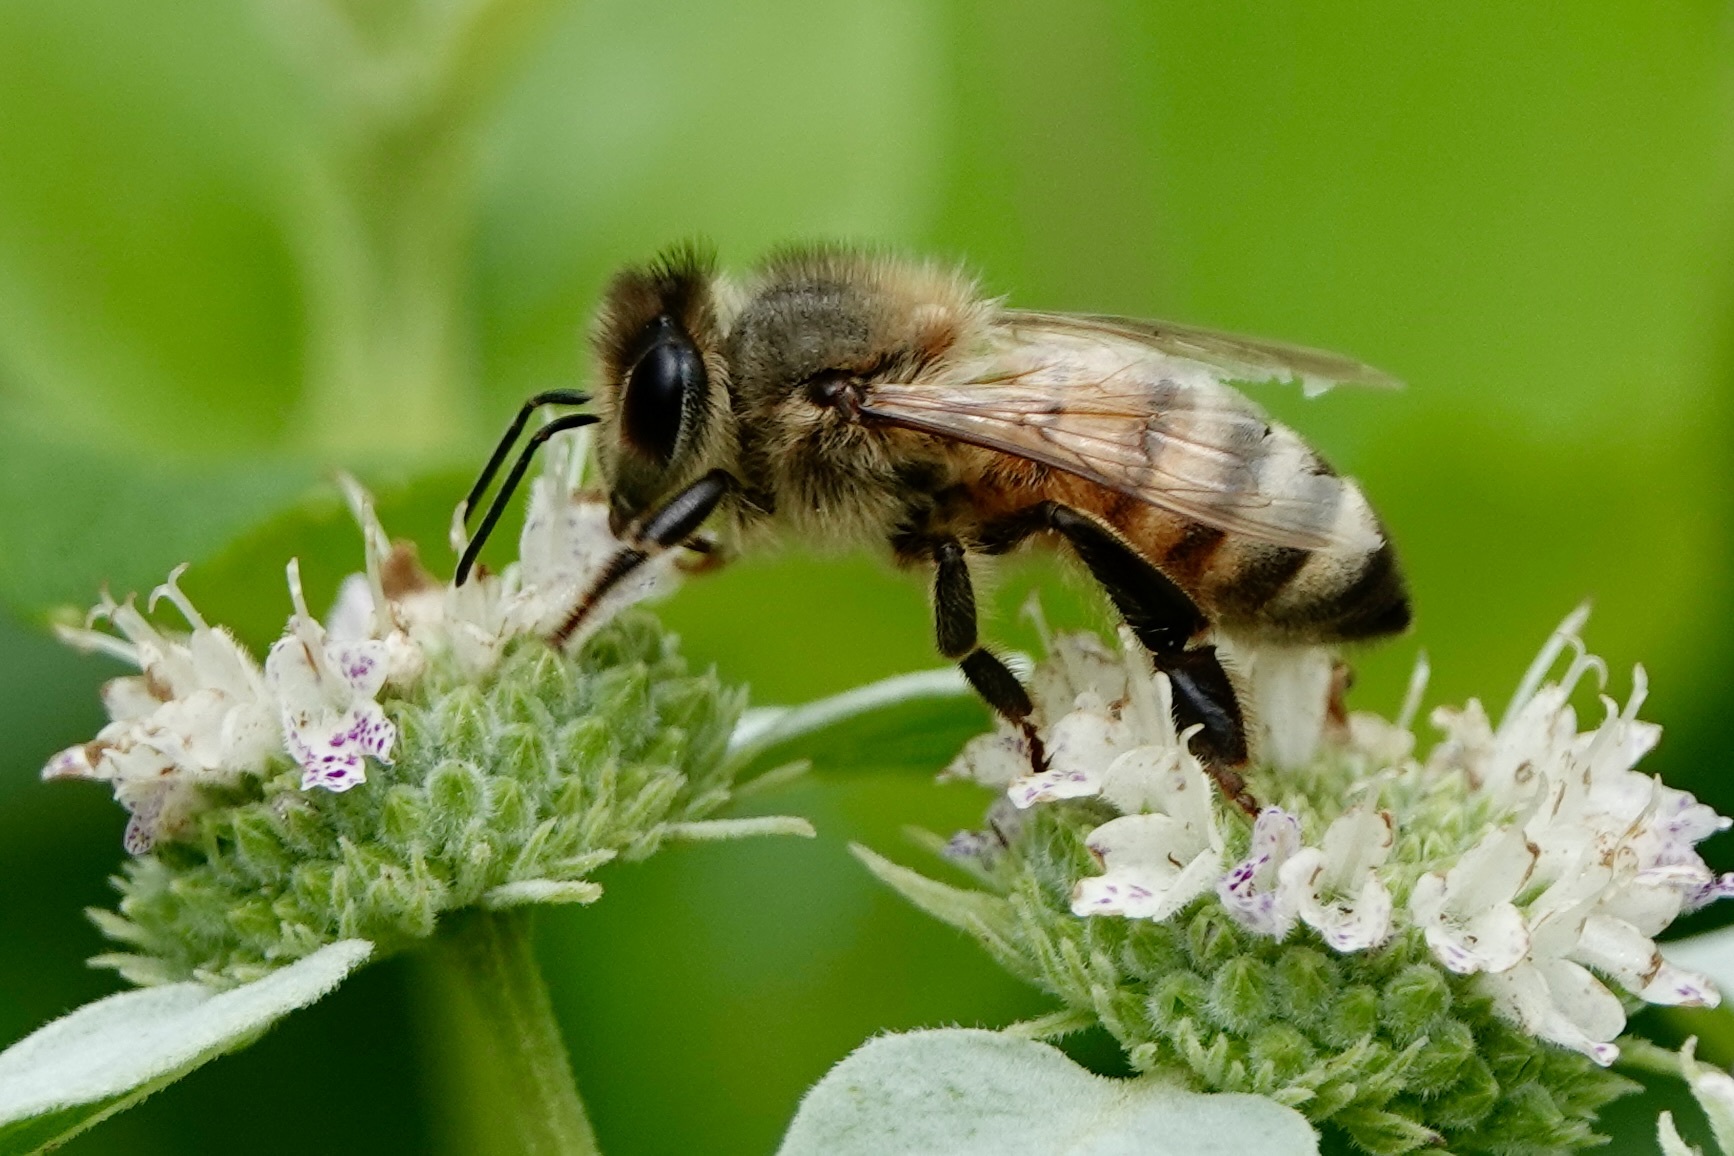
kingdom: Animalia
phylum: Arthropoda
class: Insecta
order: Hymenoptera
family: Apidae
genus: Apis
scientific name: Apis mellifera
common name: Honey bee
